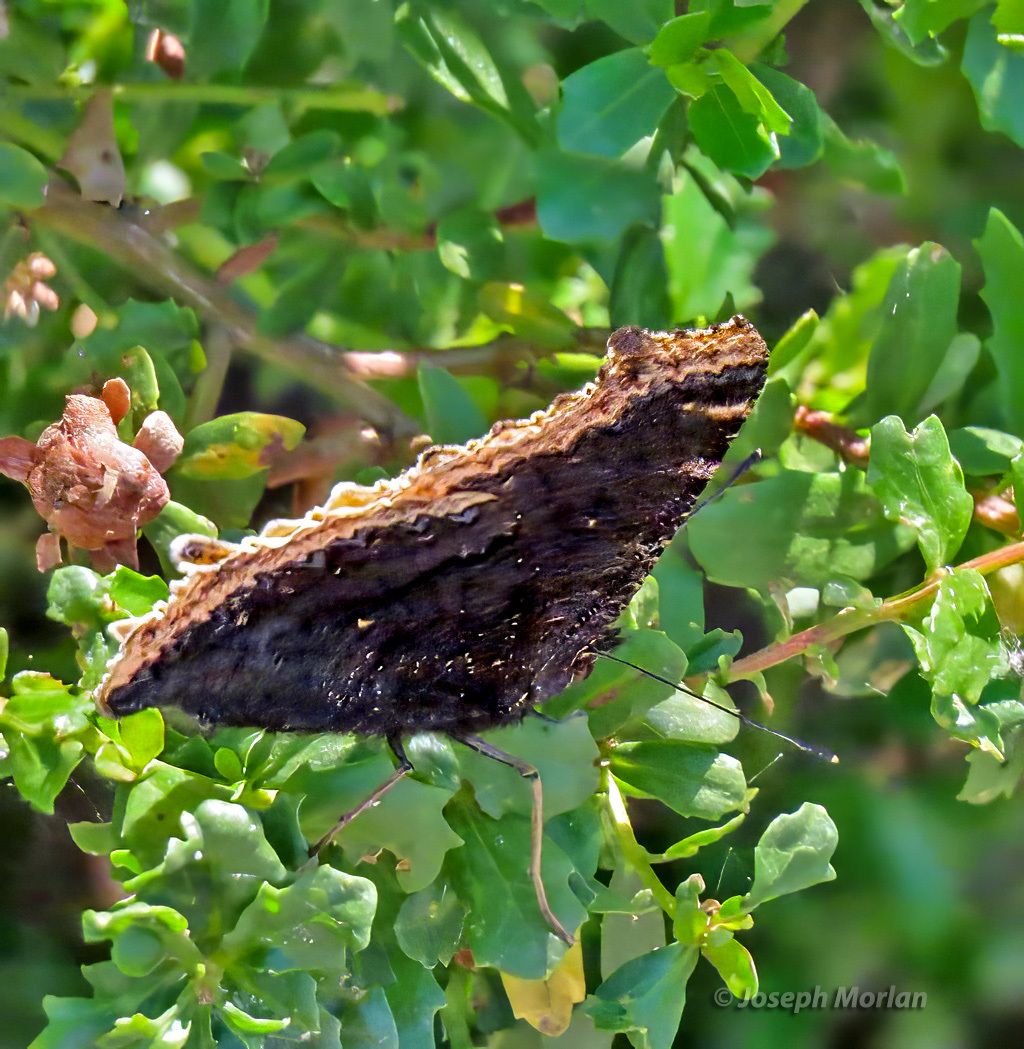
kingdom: Animalia
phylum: Arthropoda
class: Insecta
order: Lepidoptera
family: Nymphalidae
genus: Nymphalis
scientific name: Nymphalis antiopa
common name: Camberwell beauty
